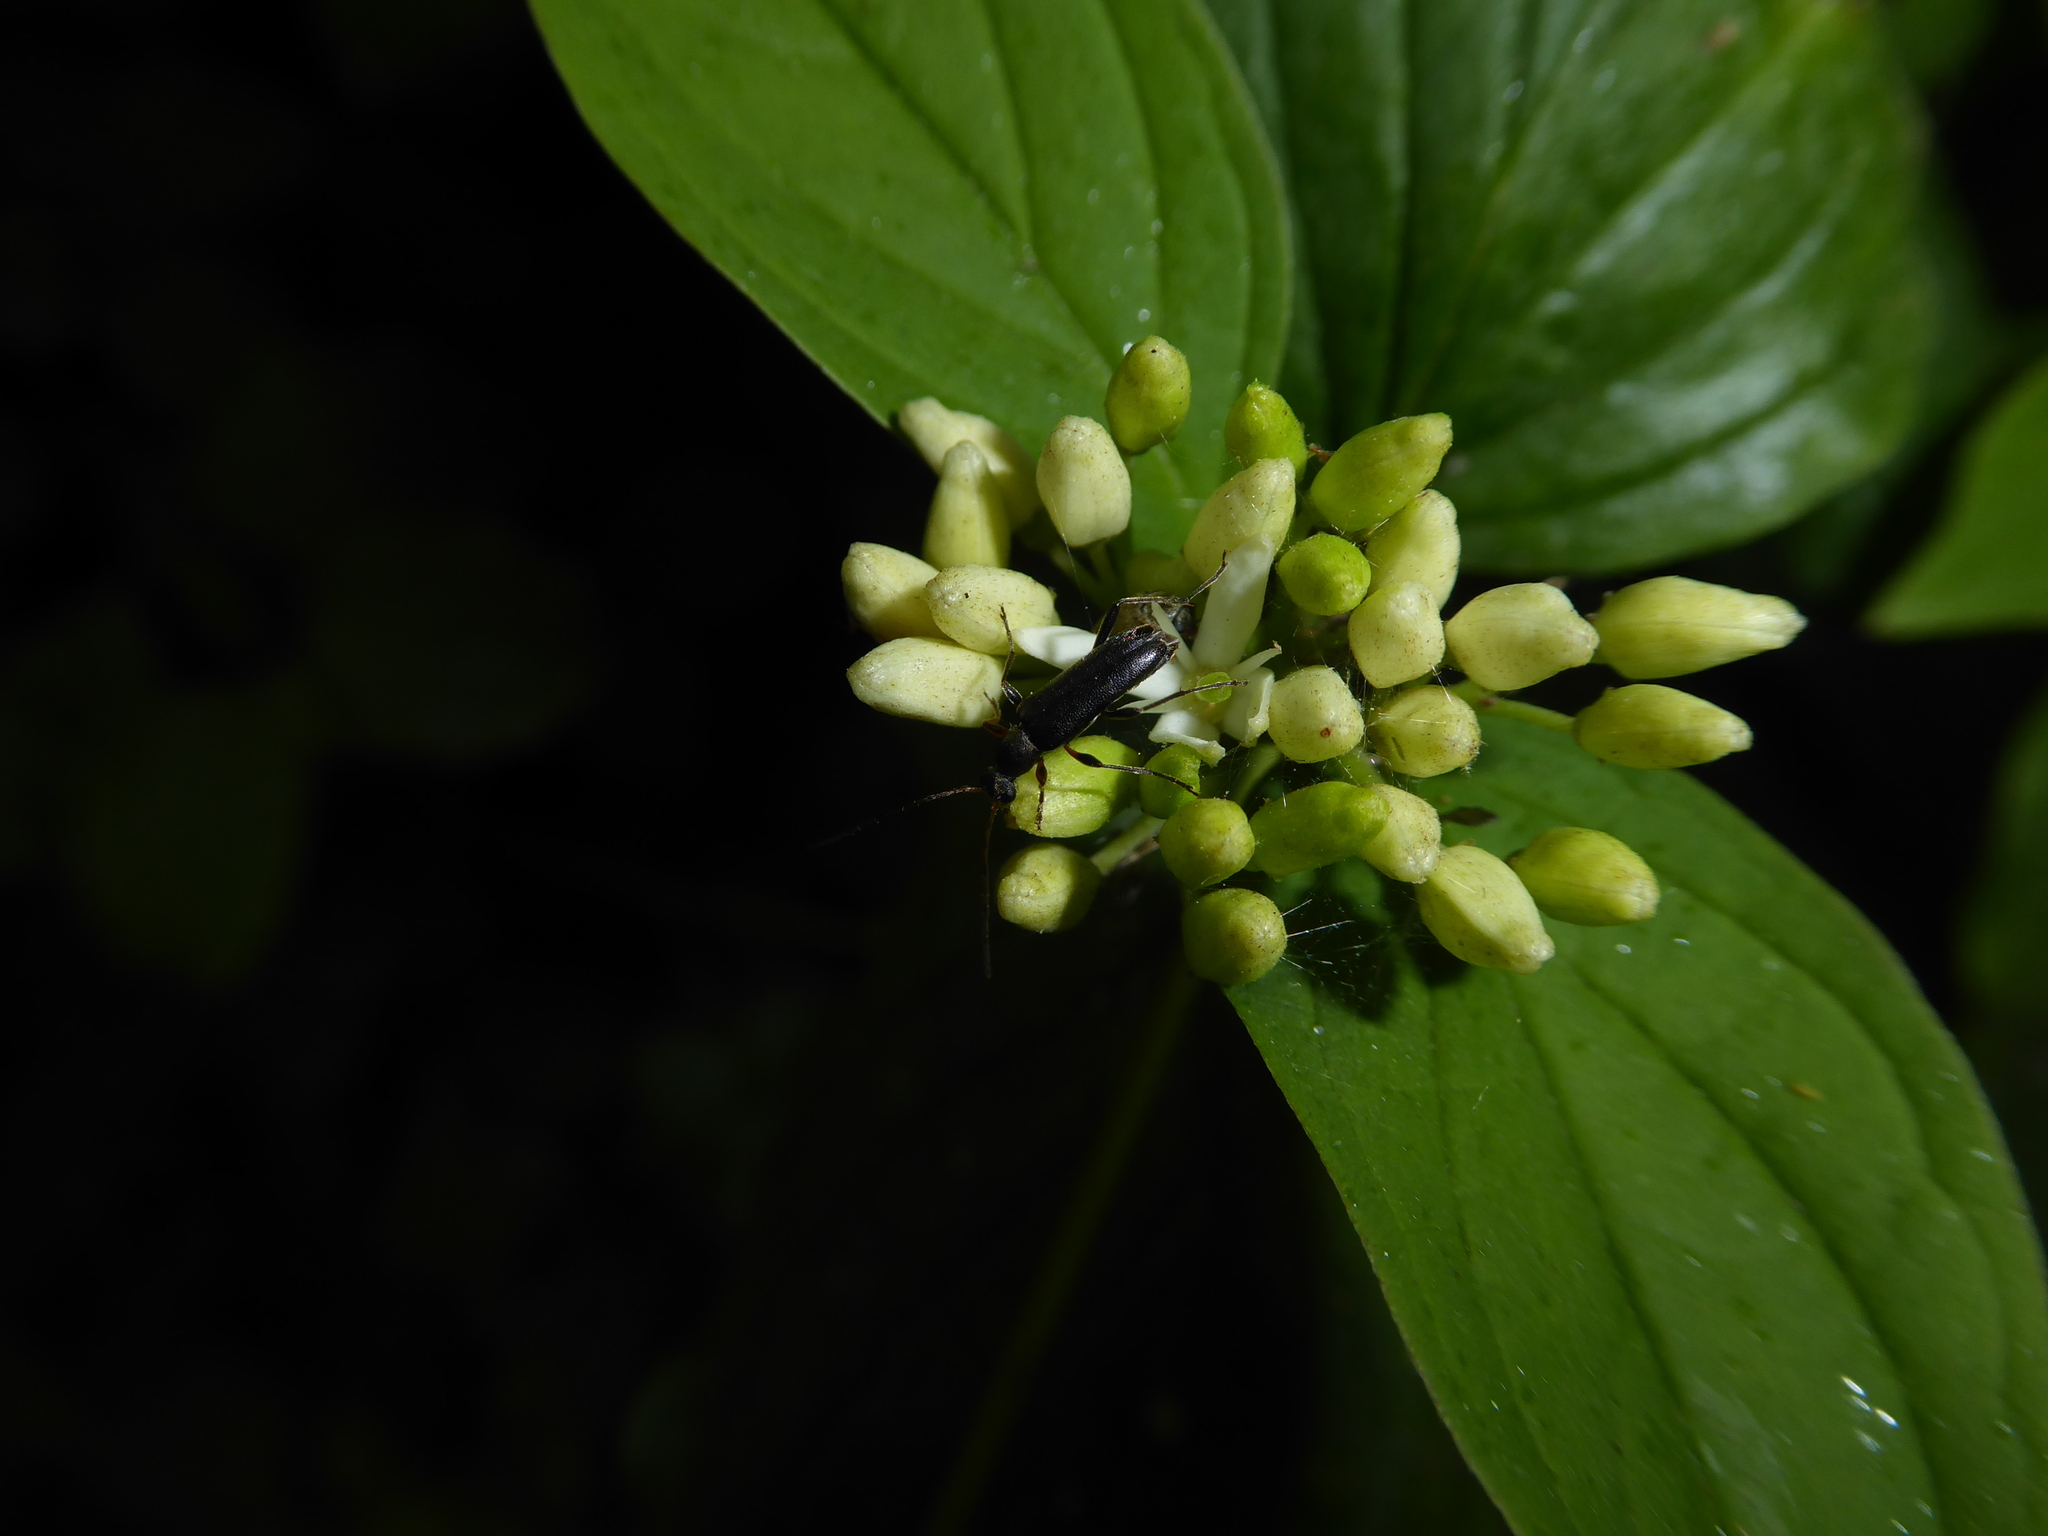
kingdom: Animalia
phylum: Arthropoda
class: Insecta
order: Coleoptera
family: Cerambycidae
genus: Grammoptera
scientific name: Grammoptera ruficornis
